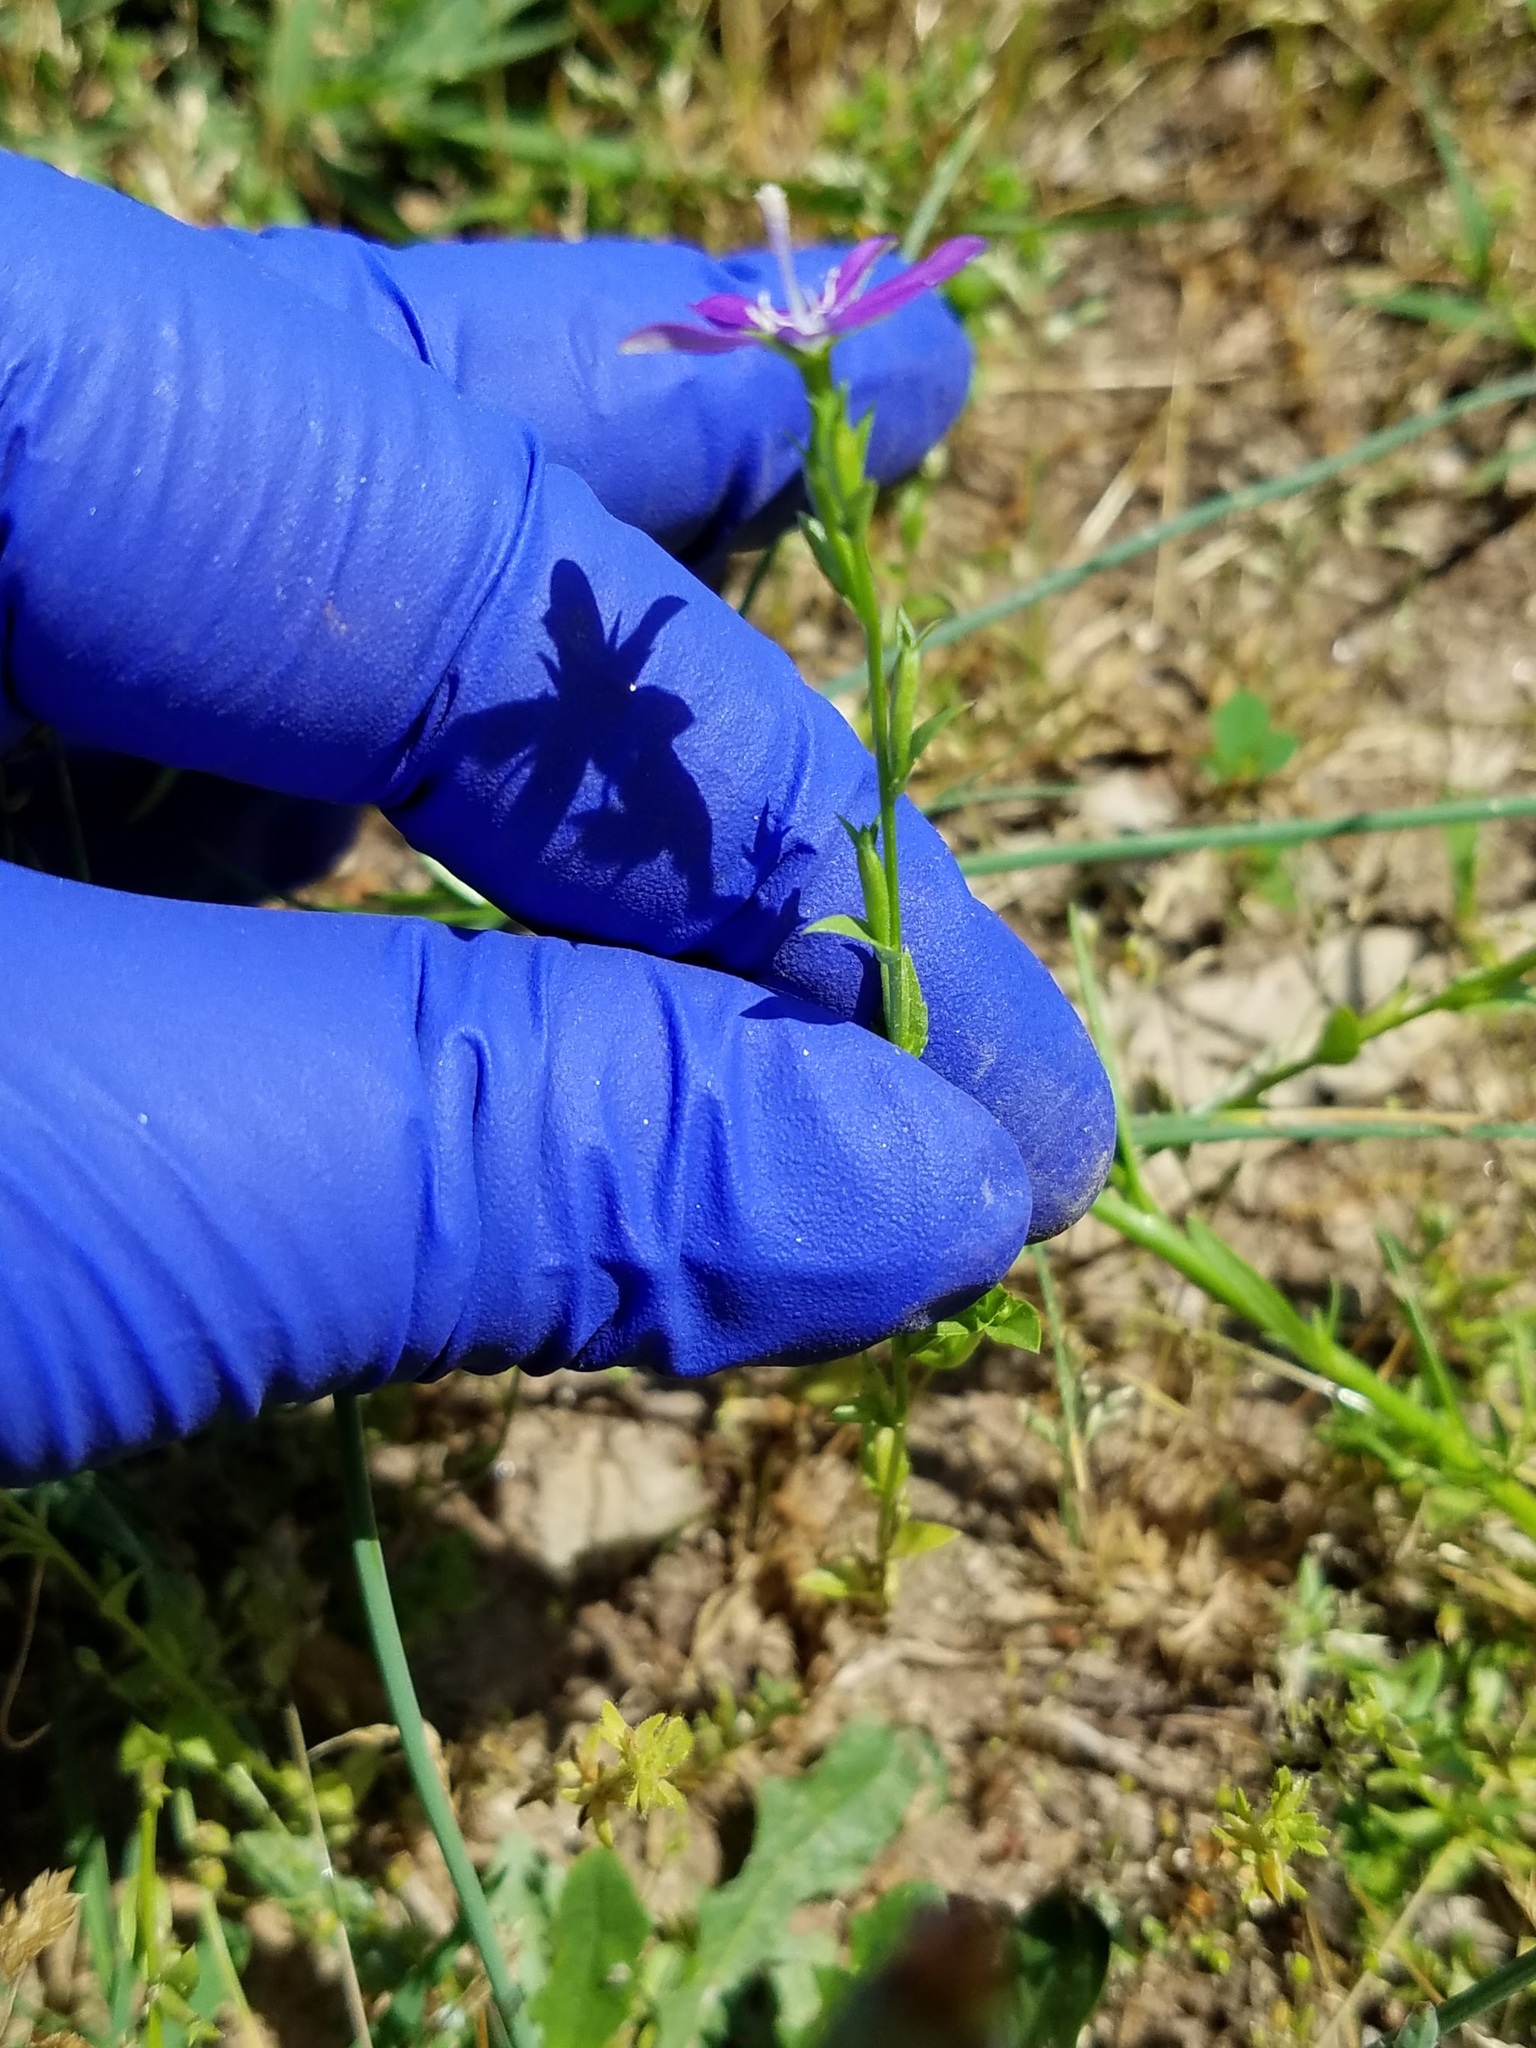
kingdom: Plantae
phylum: Tracheophyta
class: Magnoliopsida
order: Asterales
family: Campanulaceae
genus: Triodanis
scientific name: Triodanis biflora
